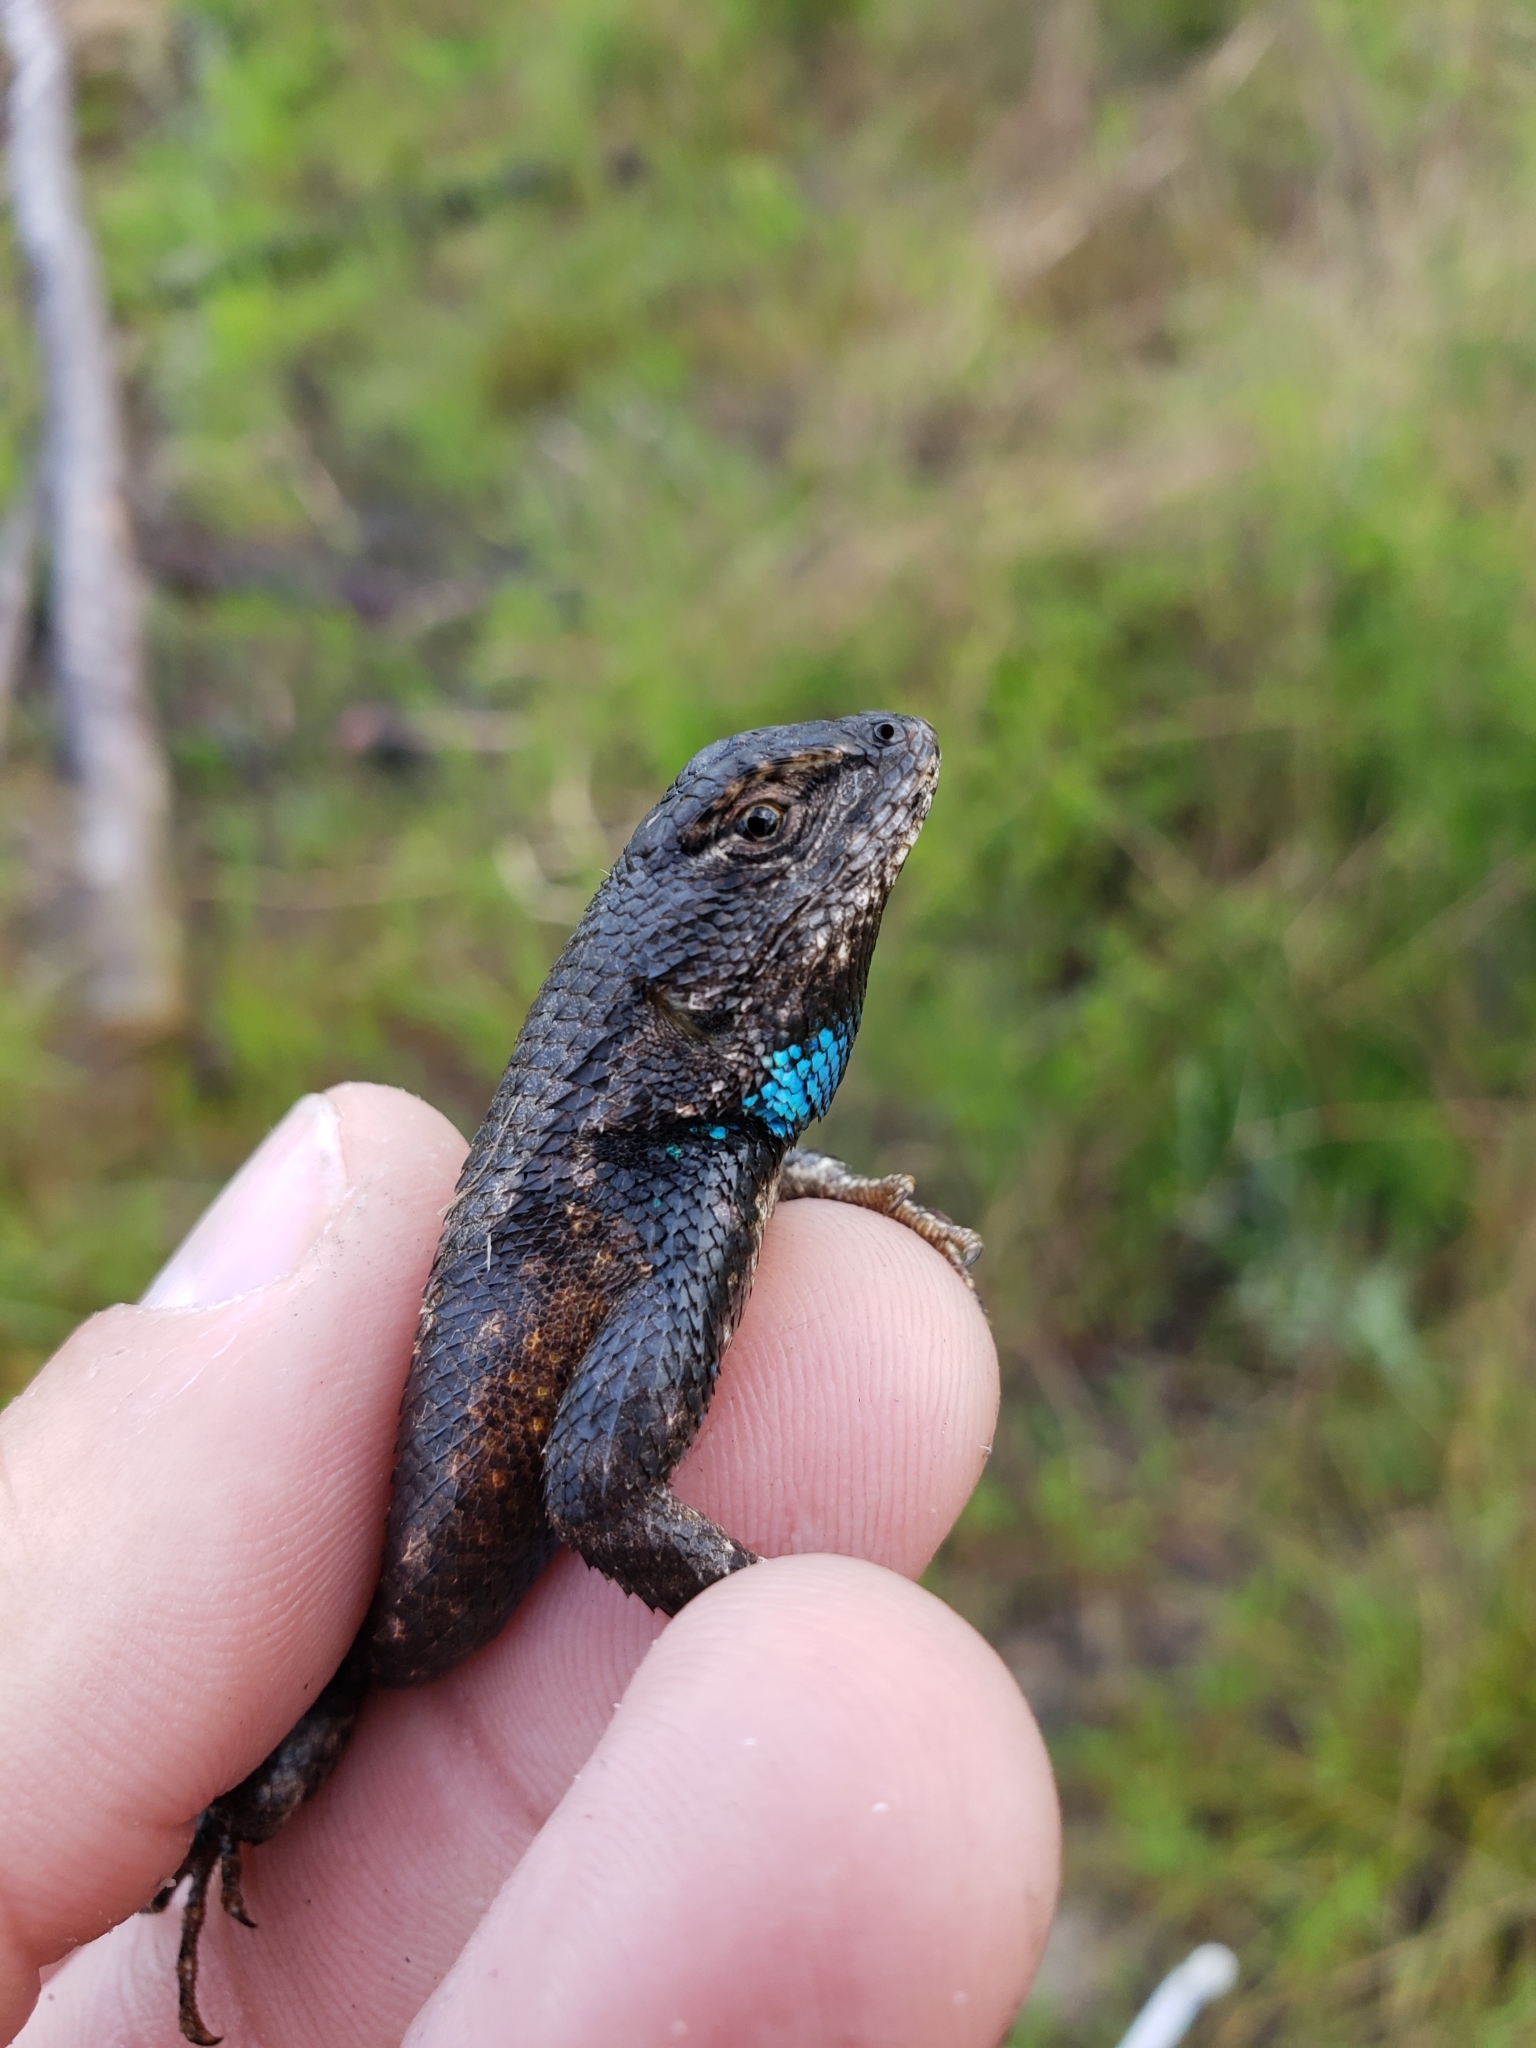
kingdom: Animalia
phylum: Chordata
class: Squamata
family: Phrynosomatidae
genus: Sceloporus
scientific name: Sceloporus undulatus
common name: Eastern fence lizard
